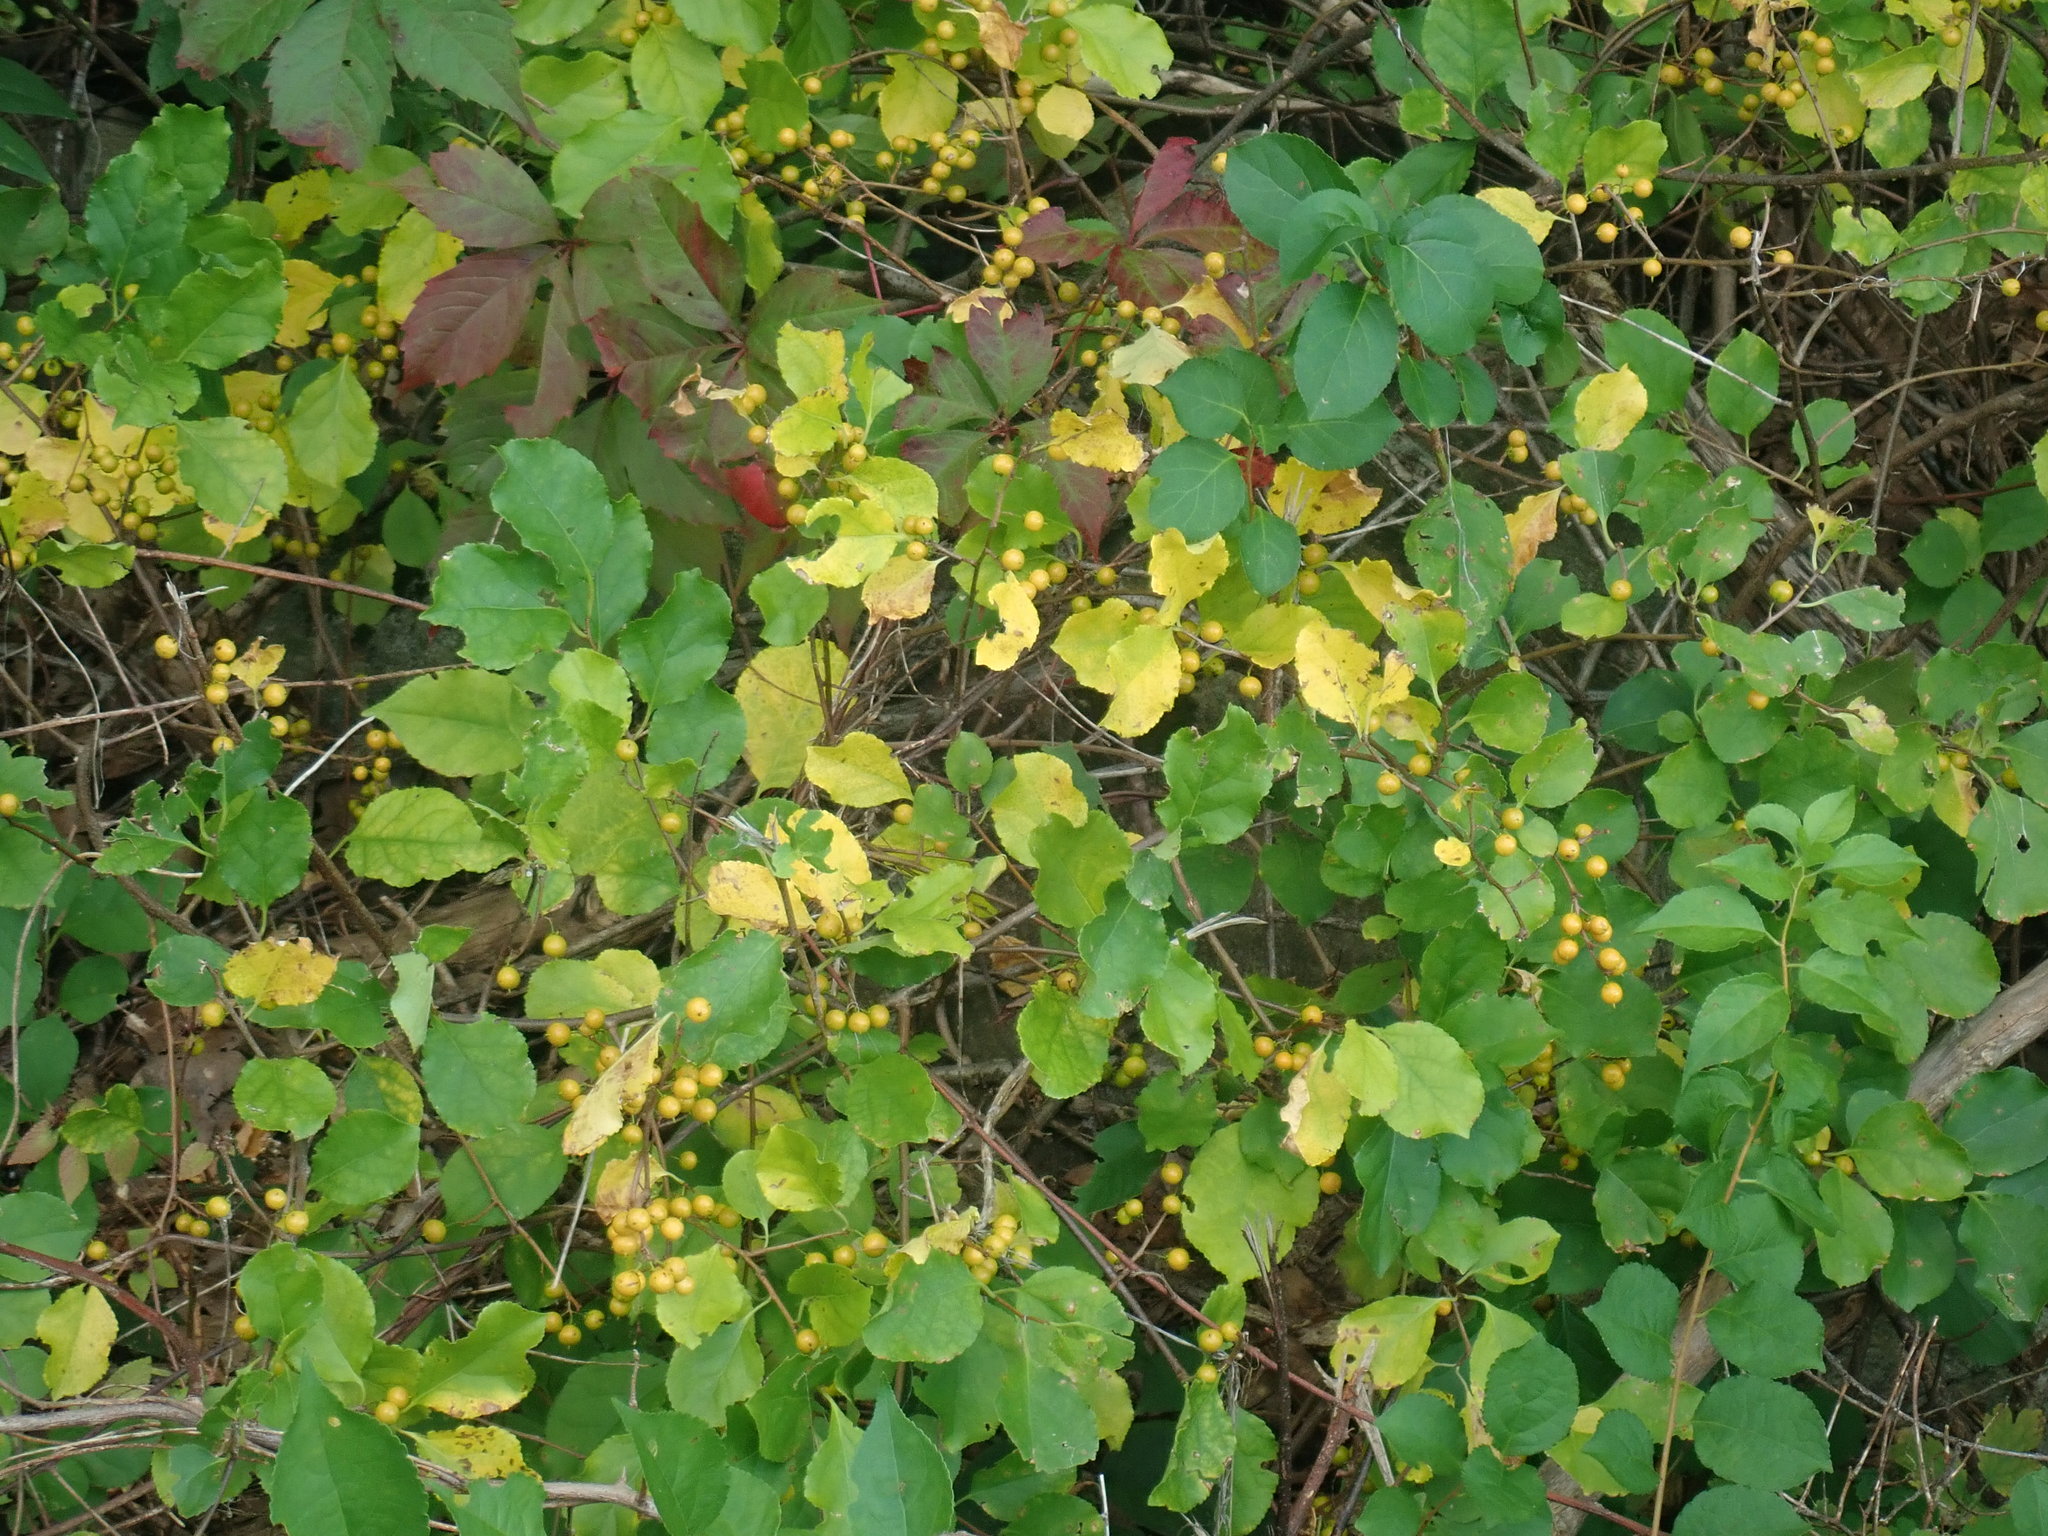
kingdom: Plantae
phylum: Tracheophyta
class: Magnoliopsida
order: Celastrales
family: Celastraceae
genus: Celastrus
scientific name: Celastrus orbiculatus
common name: Oriental bittersweet
